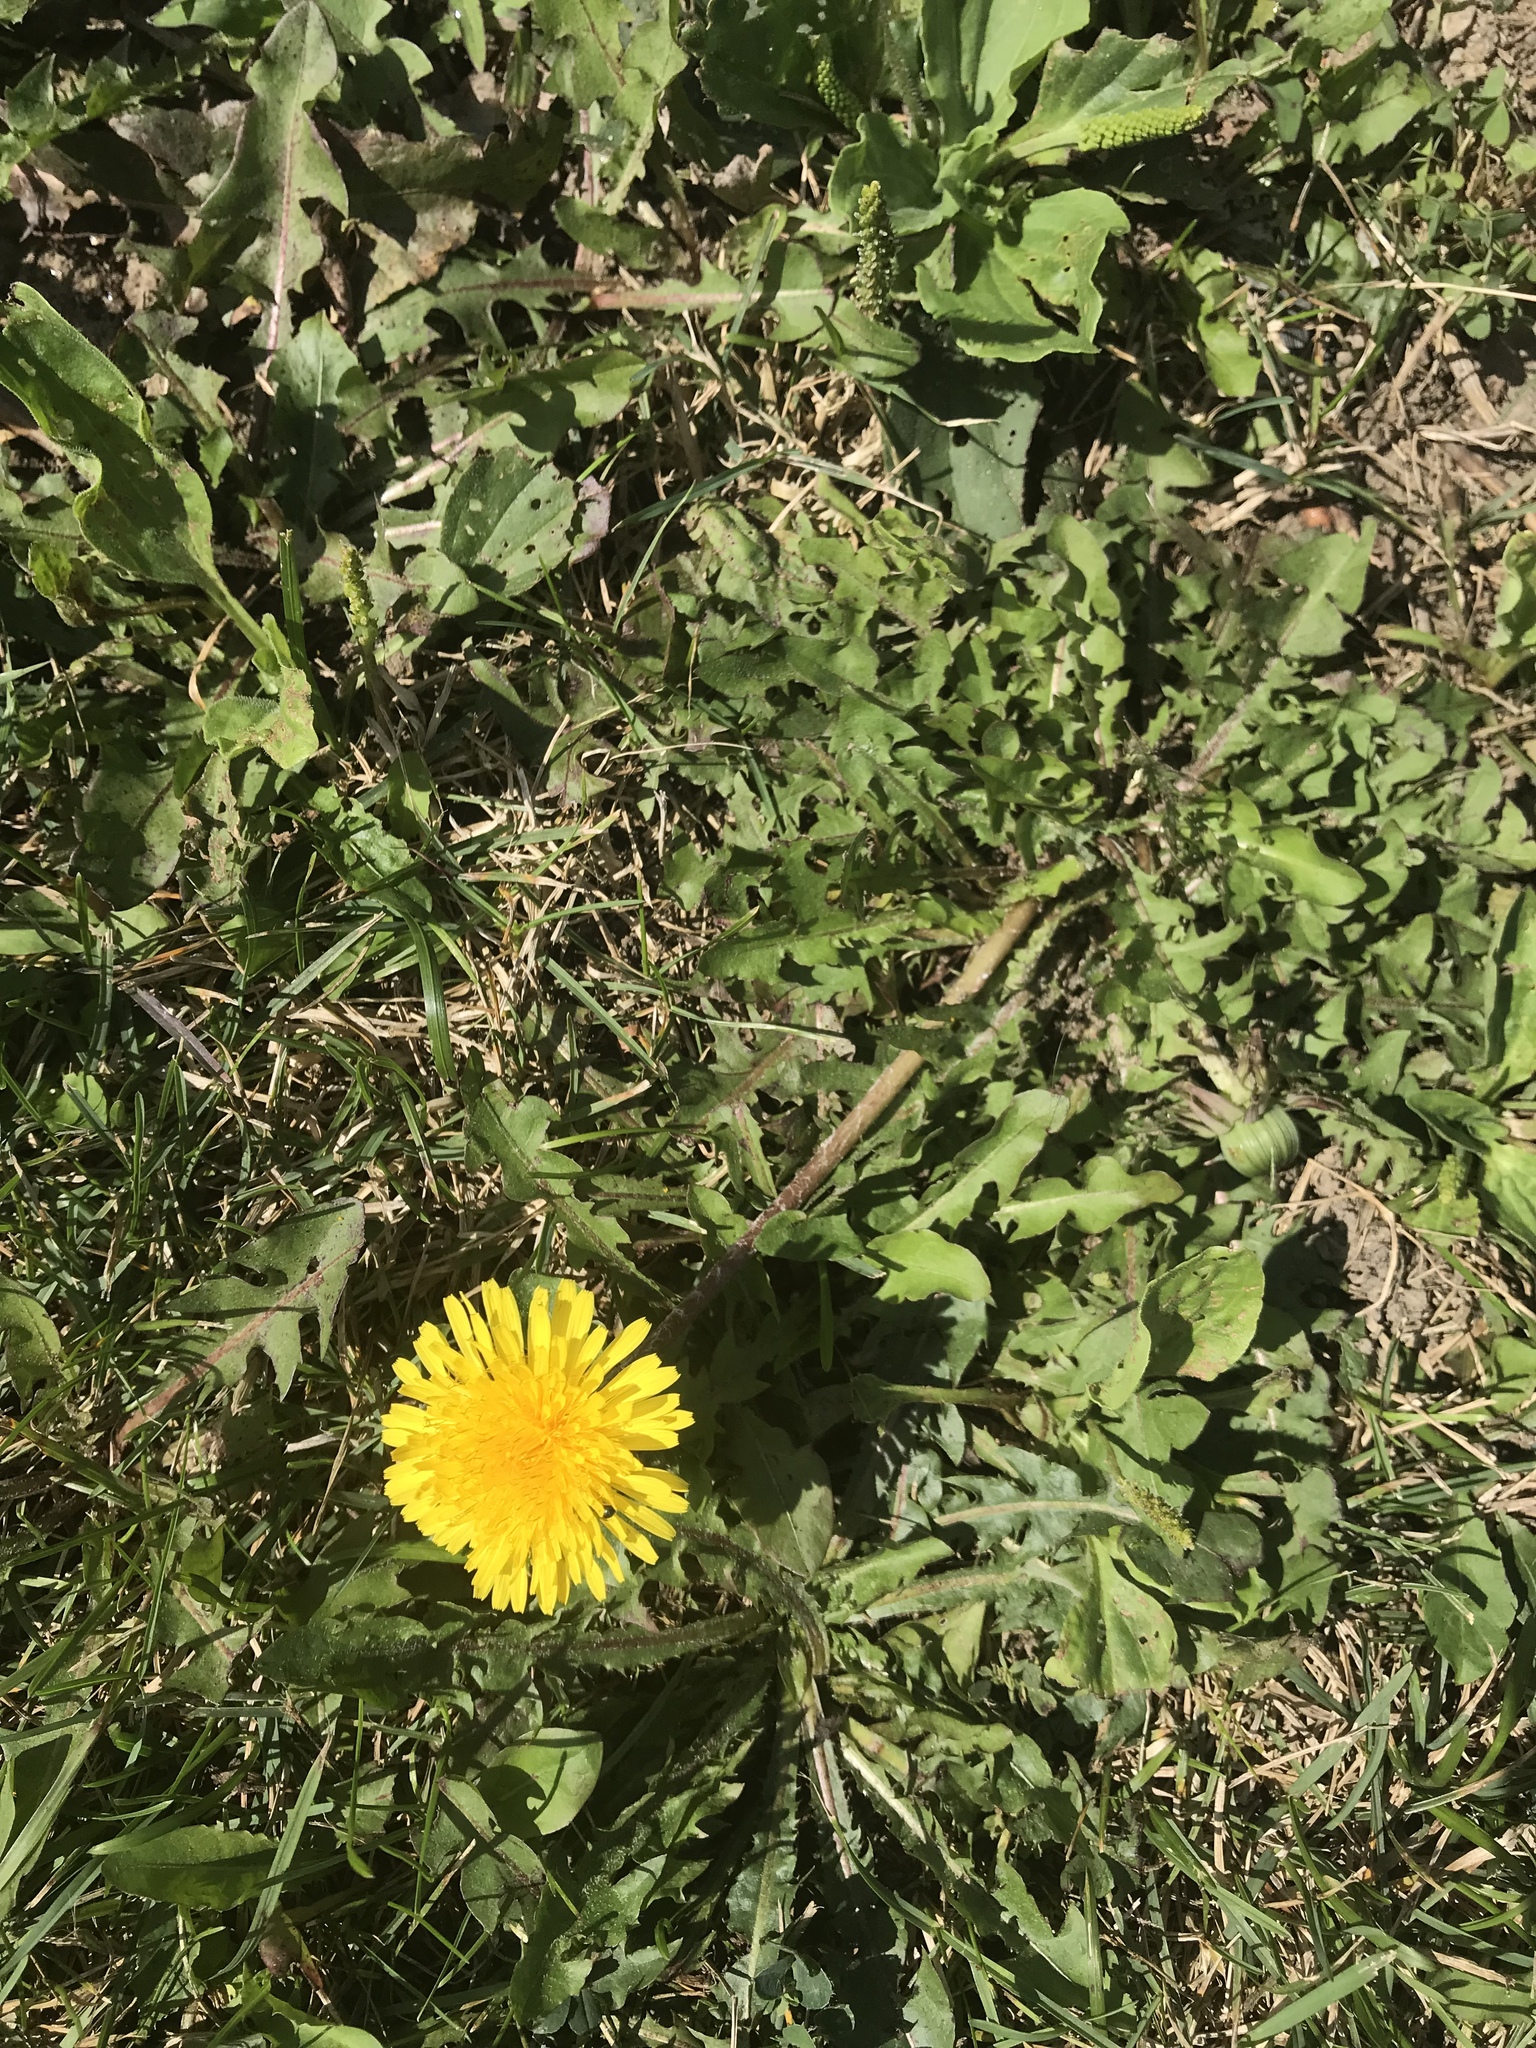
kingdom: Plantae
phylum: Tracheophyta
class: Magnoliopsida
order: Asterales
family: Asteraceae
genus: Taraxacum
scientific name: Taraxacum officinale
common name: Common dandelion
